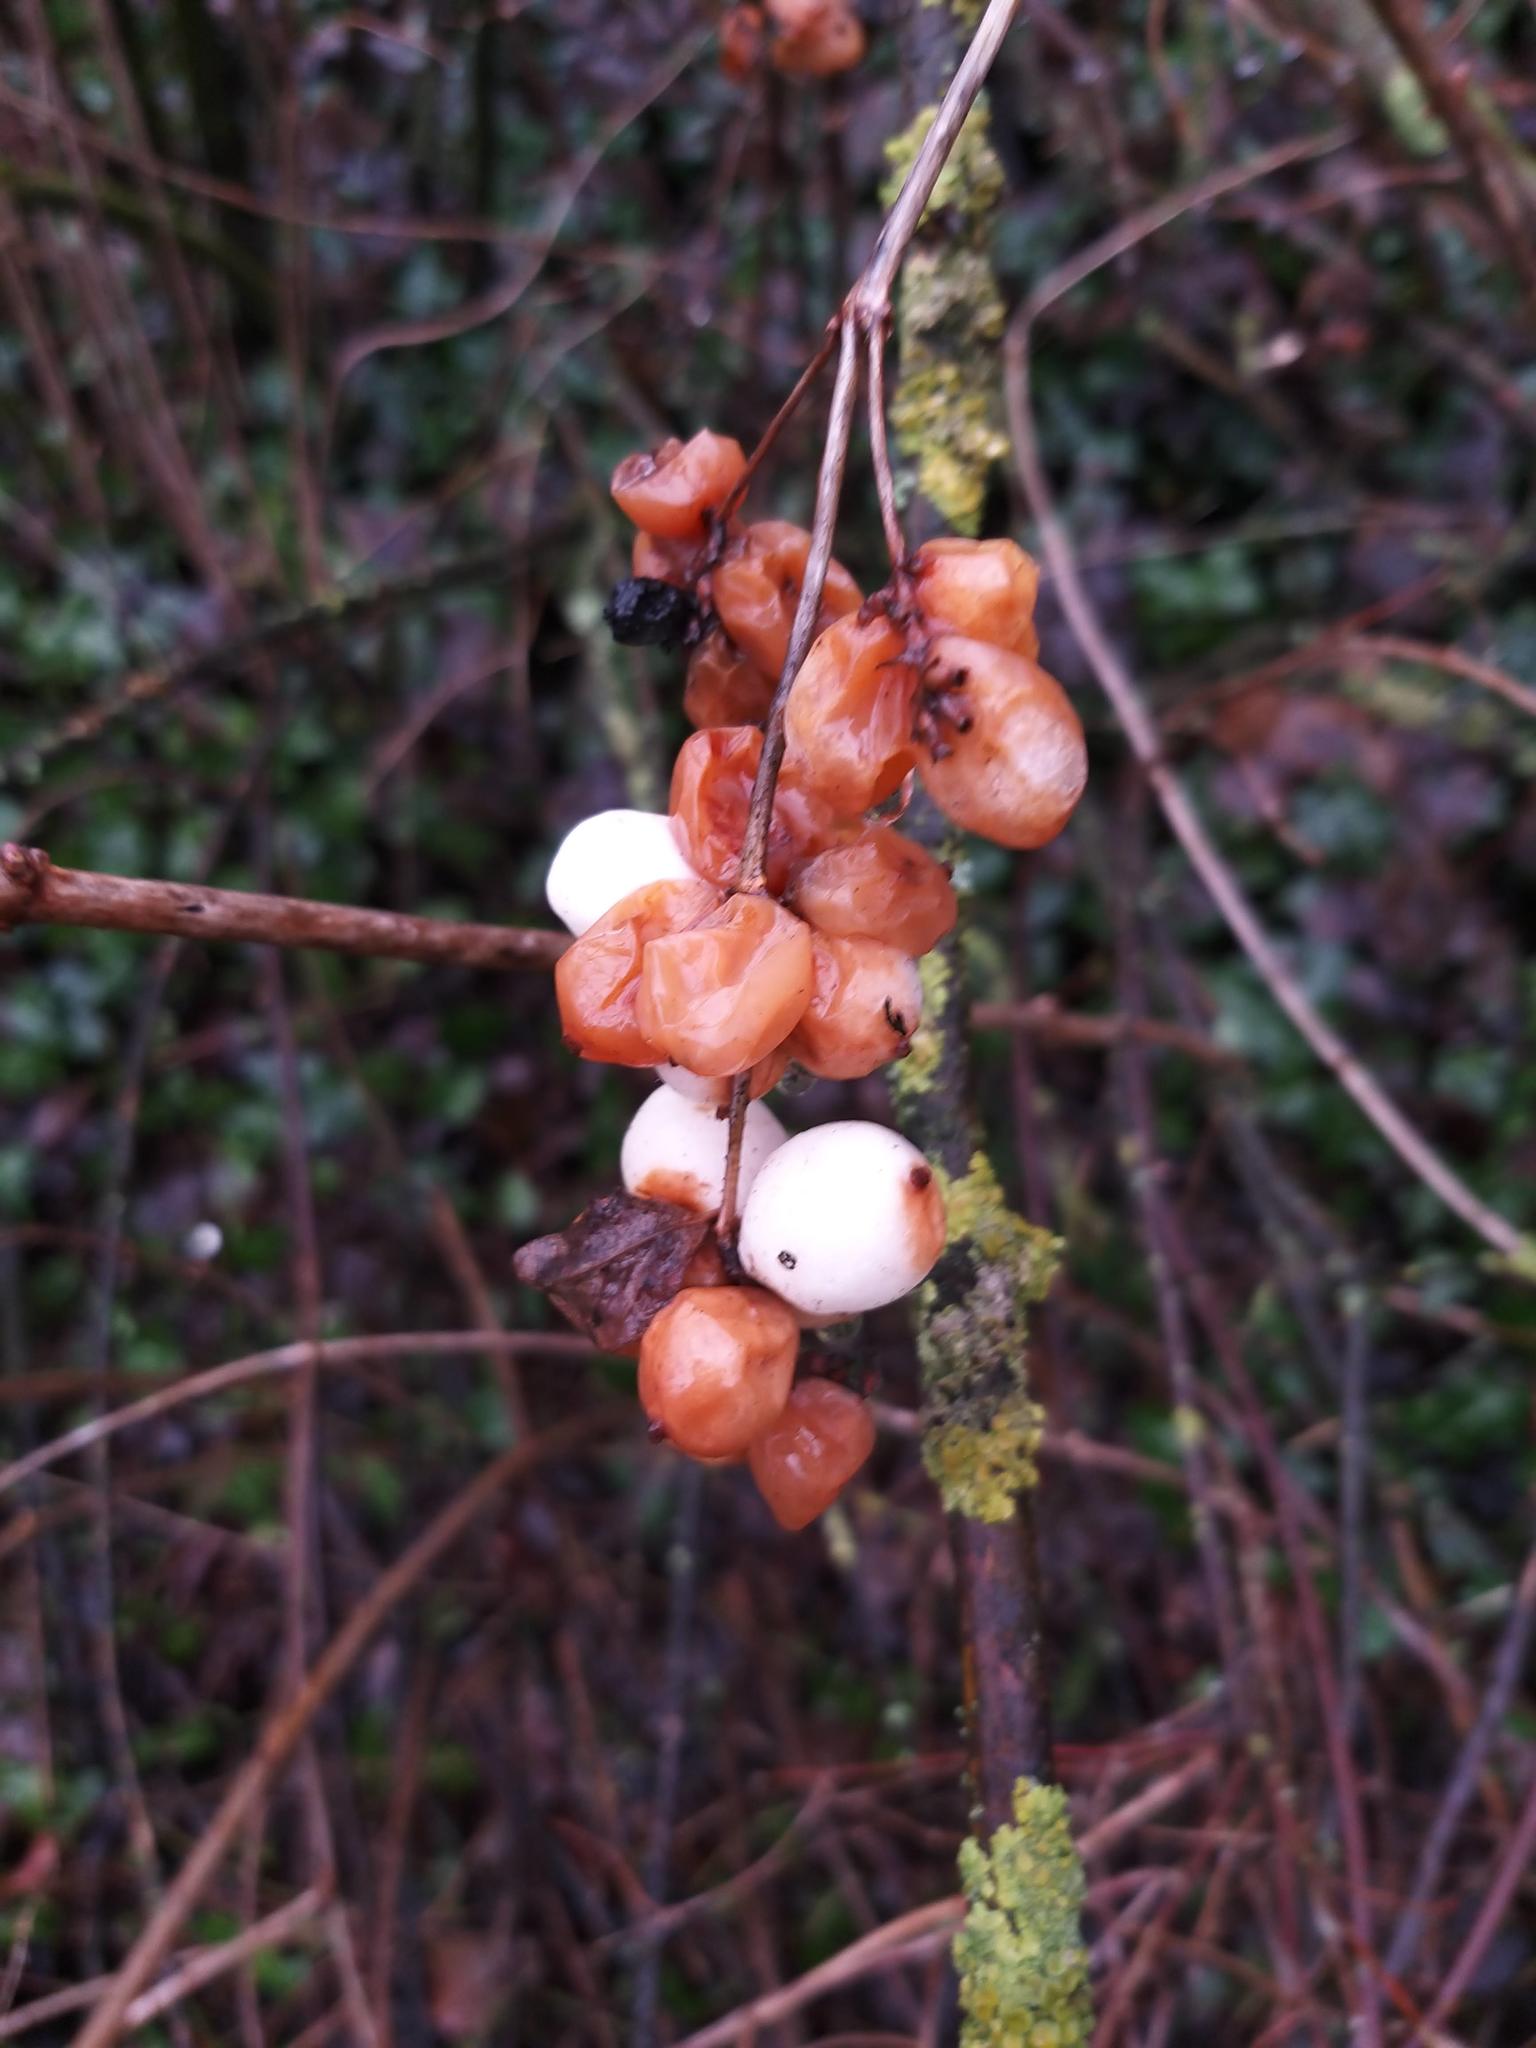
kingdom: Plantae
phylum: Tracheophyta
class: Magnoliopsida
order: Dipsacales
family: Caprifoliaceae
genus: Symphoricarpos
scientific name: Symphoricarpos albus
